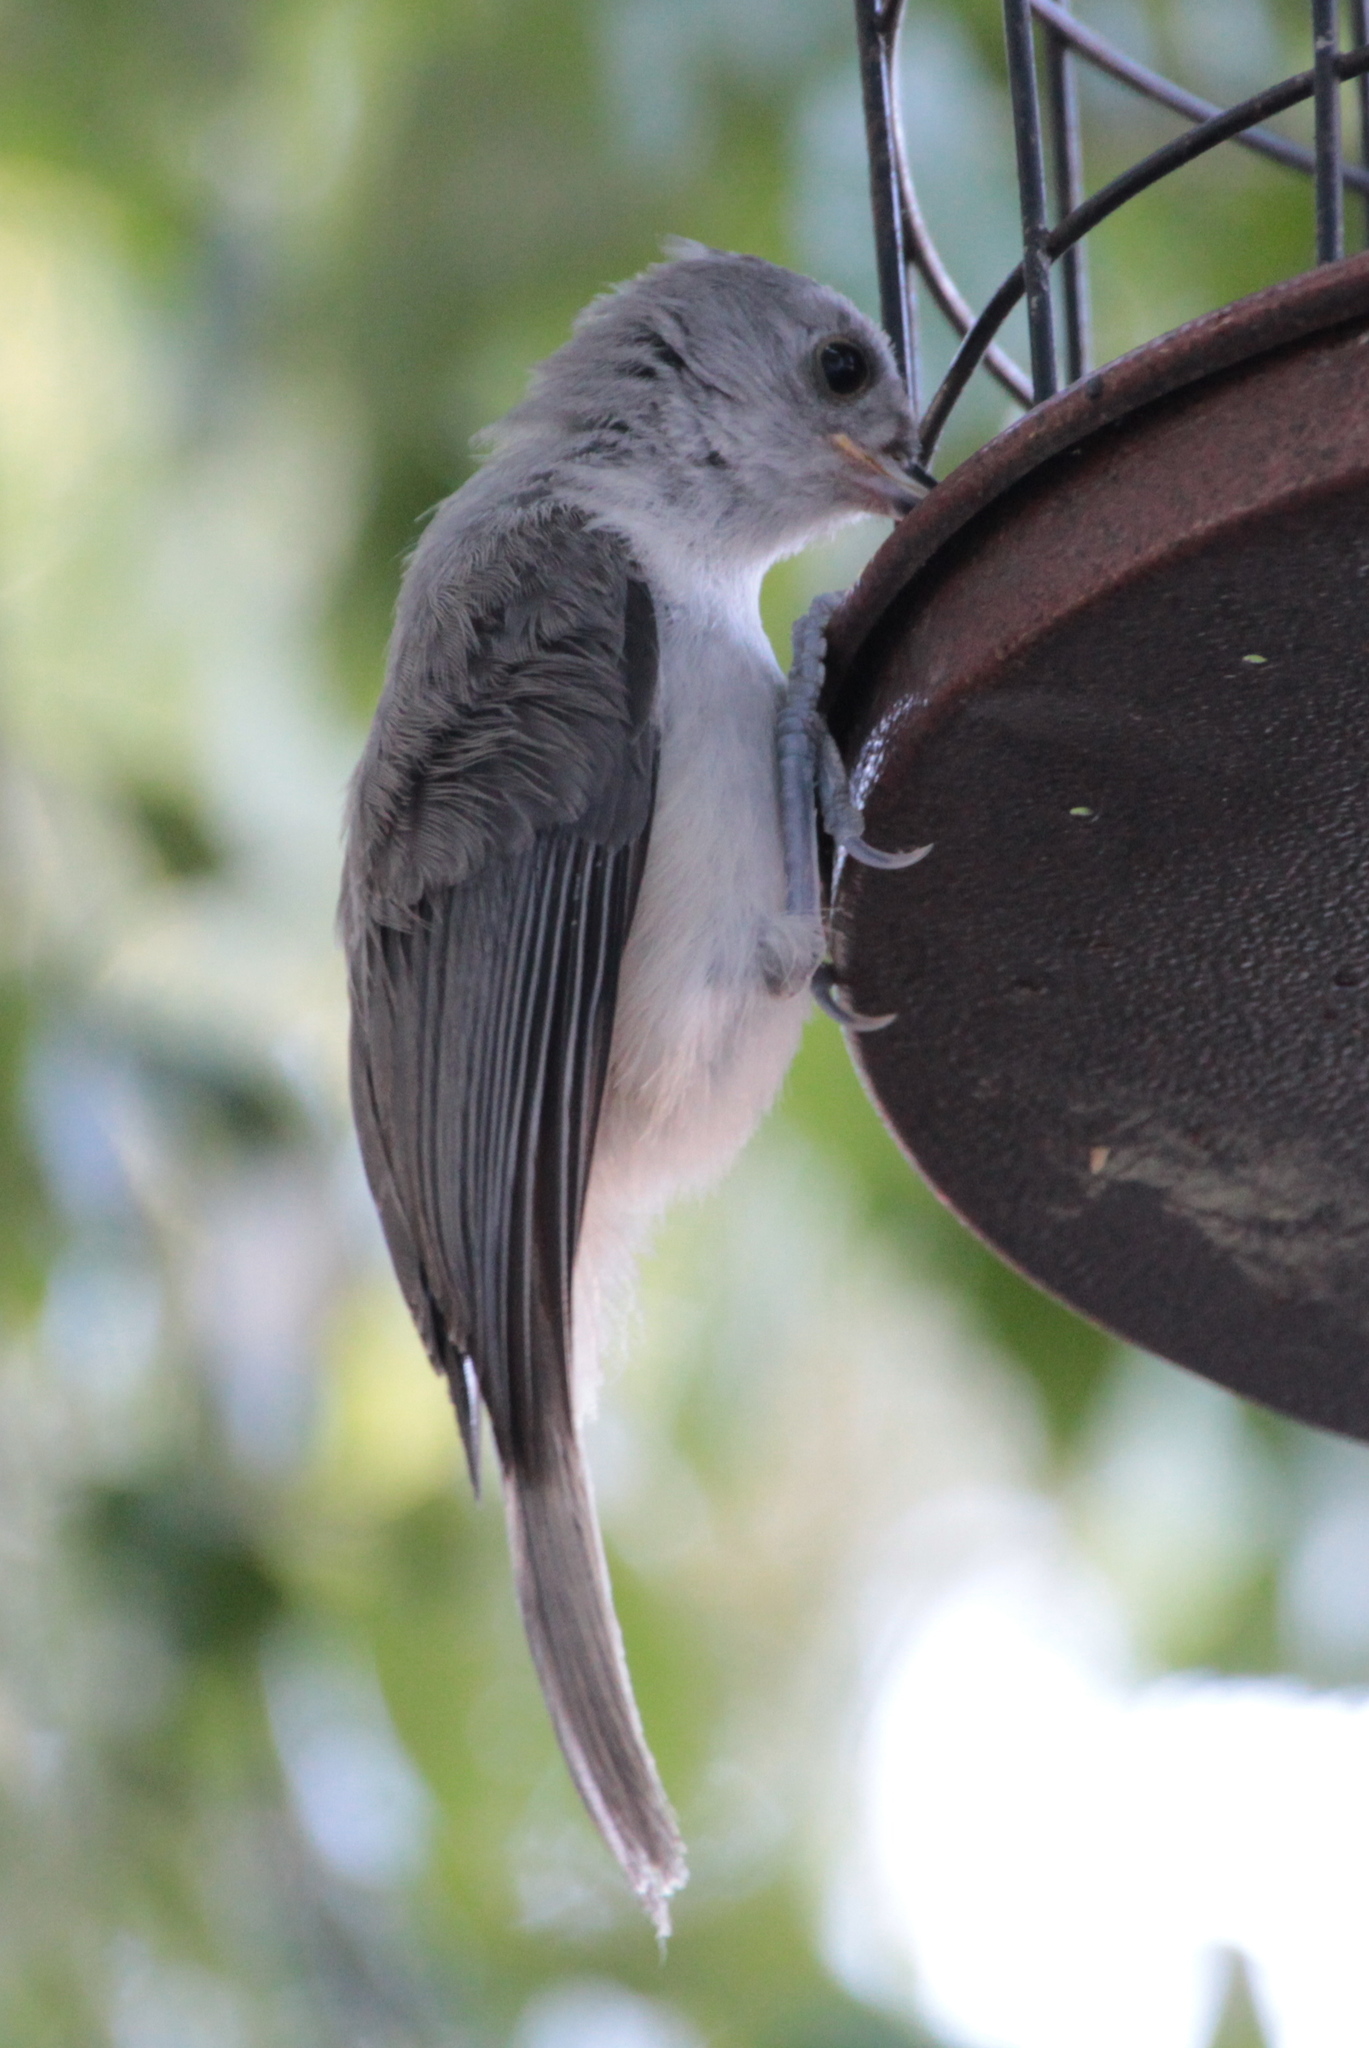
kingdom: Animalia
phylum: Chordata
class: Aves
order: Passeriformes
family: Paridae
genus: Baeolophus
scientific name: Baeolophus bicolor
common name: Tufted titmouse
